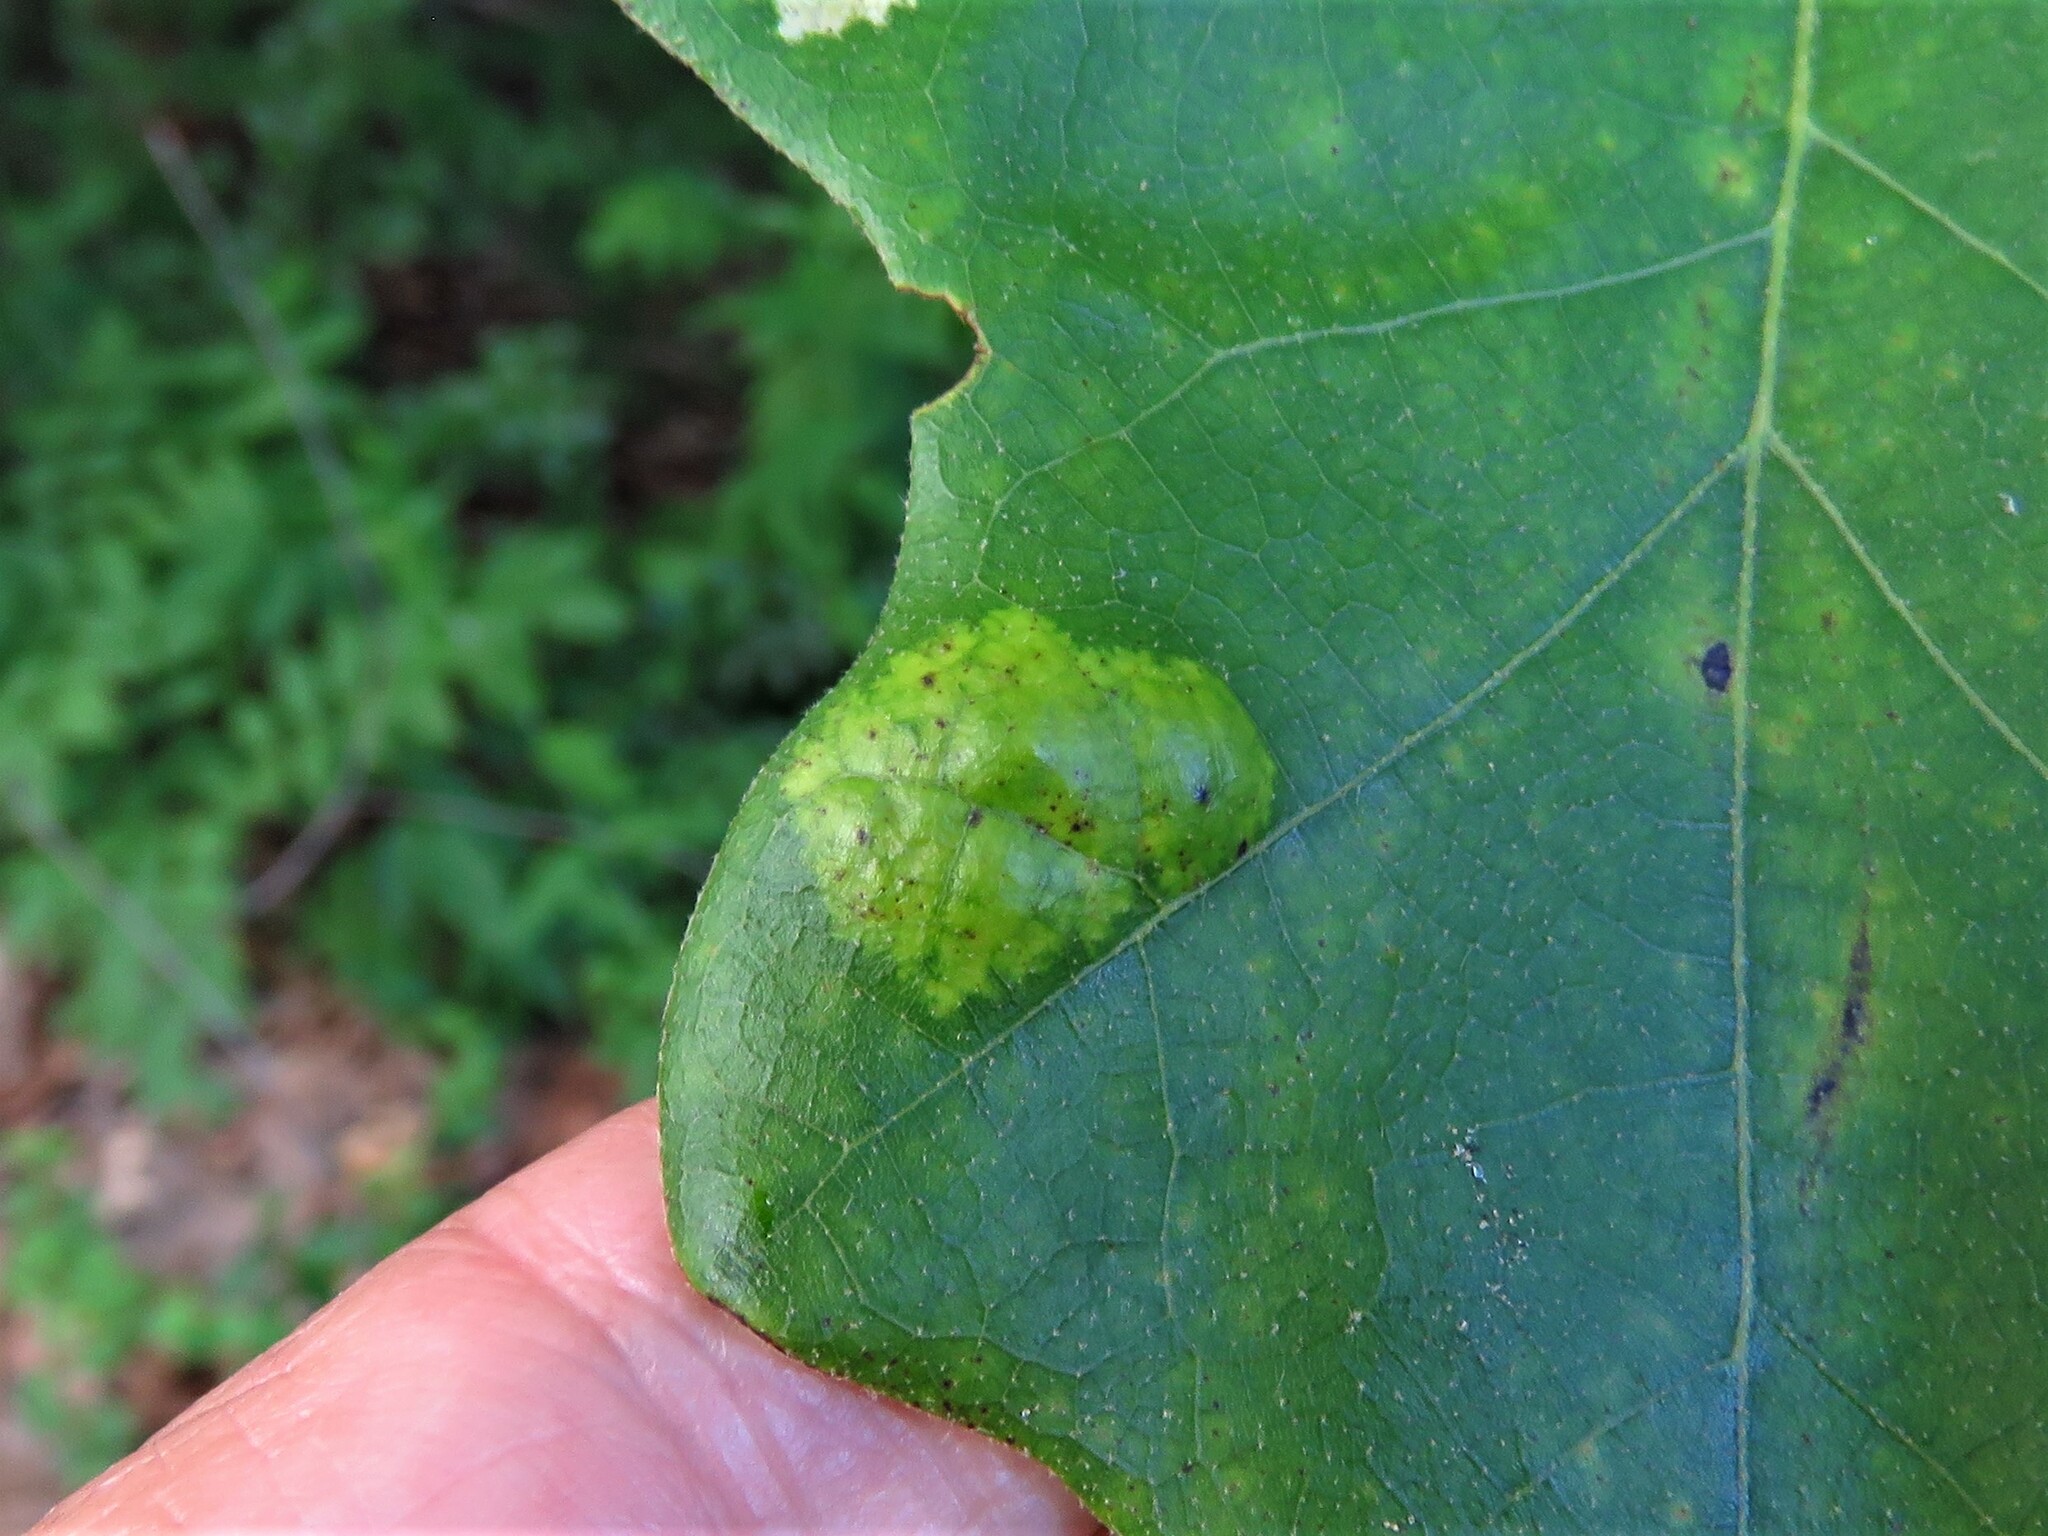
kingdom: Fungi
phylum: Ascomycota
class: Taphrinomycetes
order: Taphrinales
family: Taphrinaceae
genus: Taphrina
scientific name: Taphrina caerulescens
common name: Oak leaf blister
